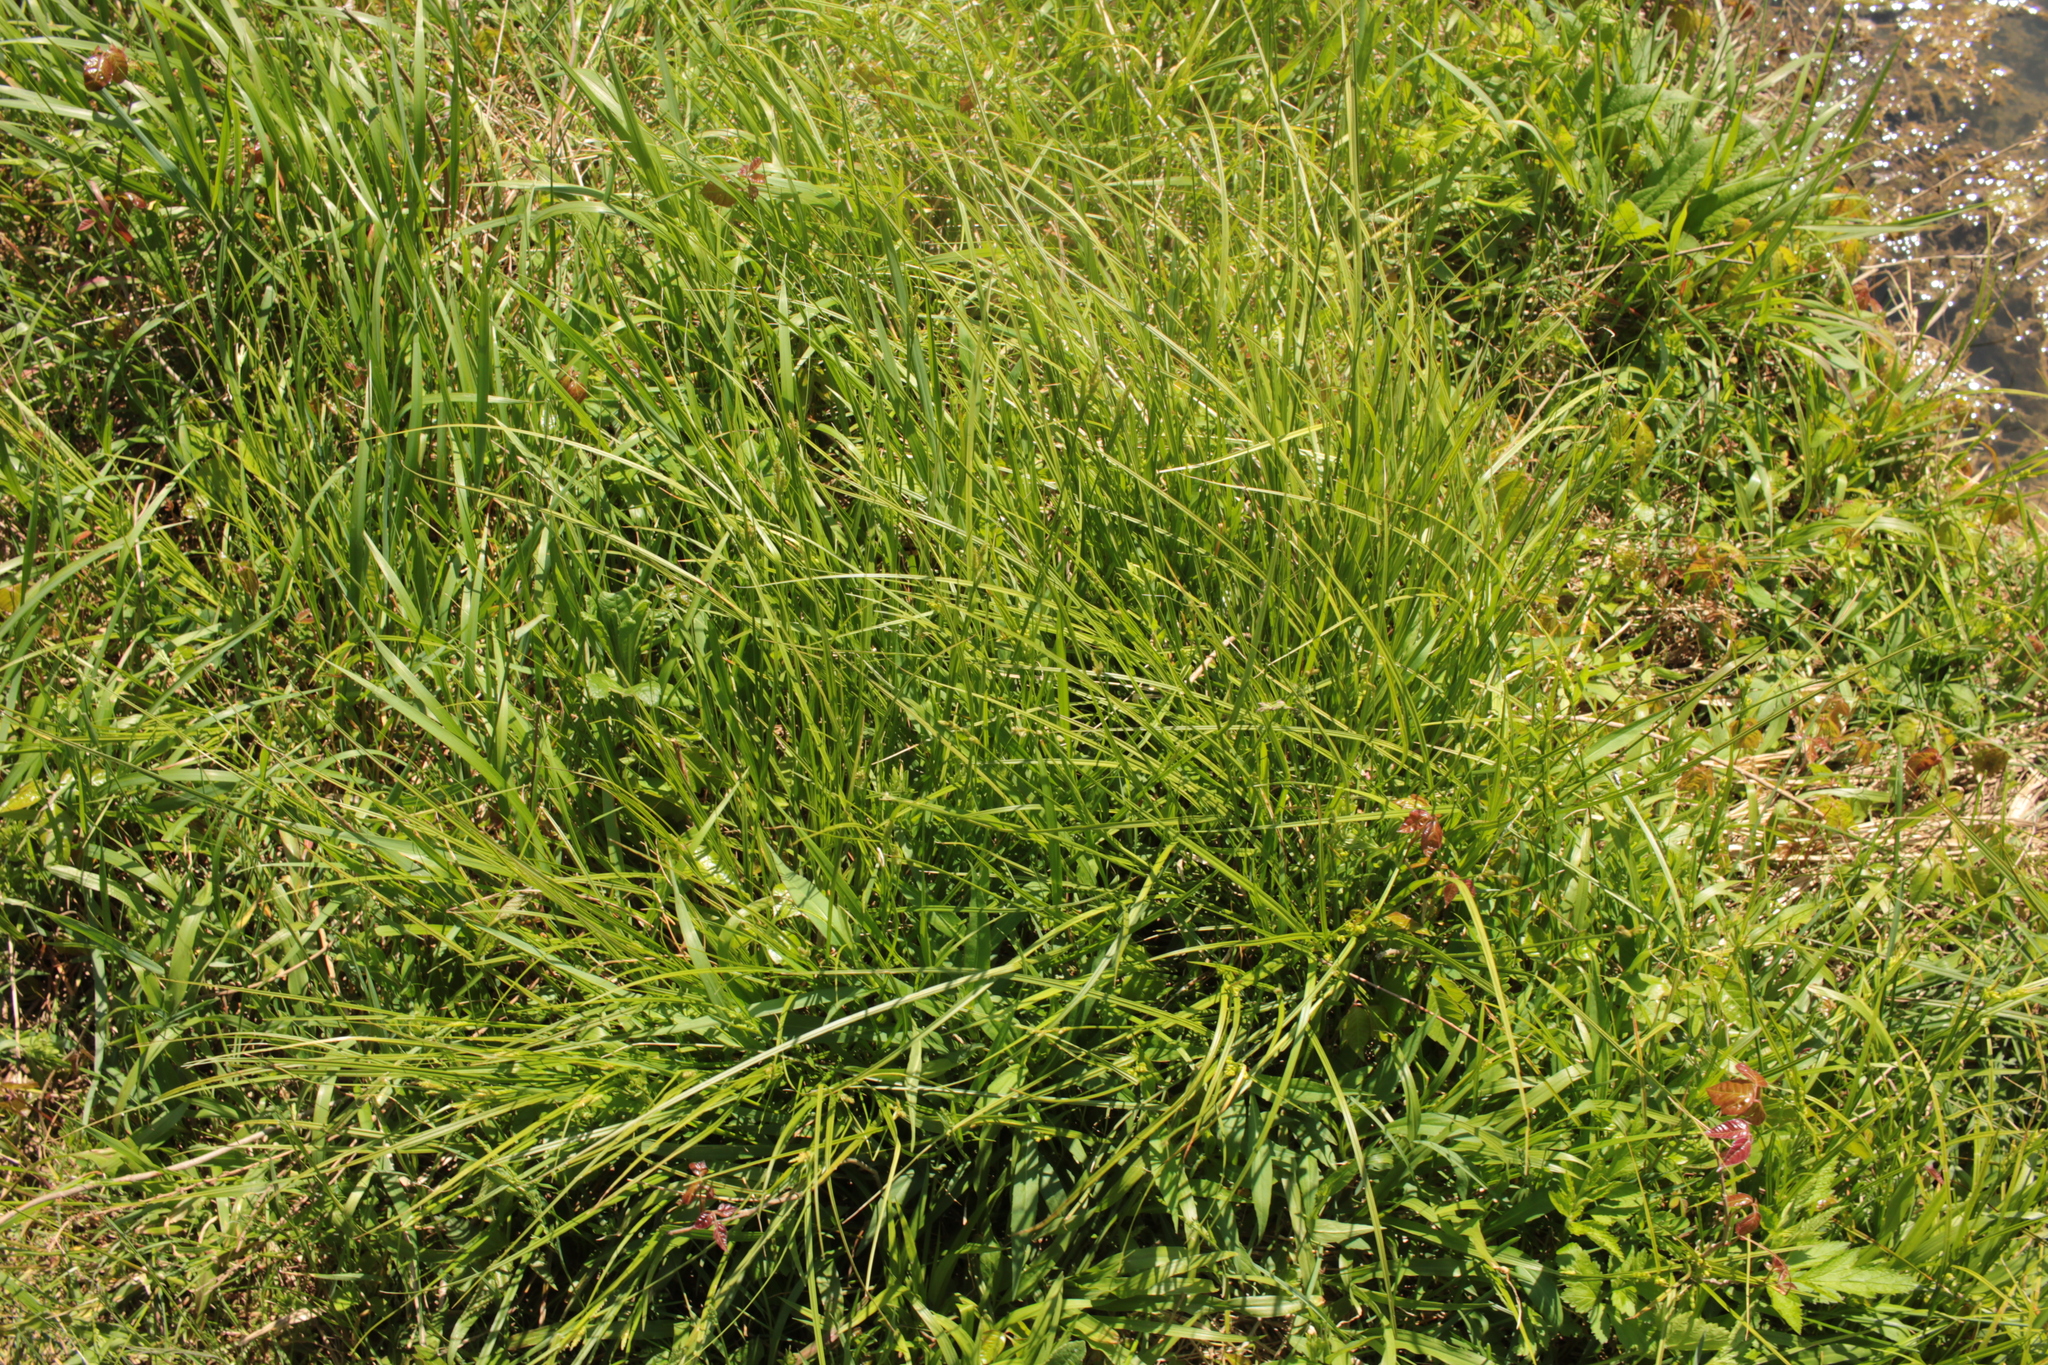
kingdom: Plantae
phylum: Tracheophyta
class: Liliopsida
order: Poales
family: Cyperaceae
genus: Carex
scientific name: Carex
